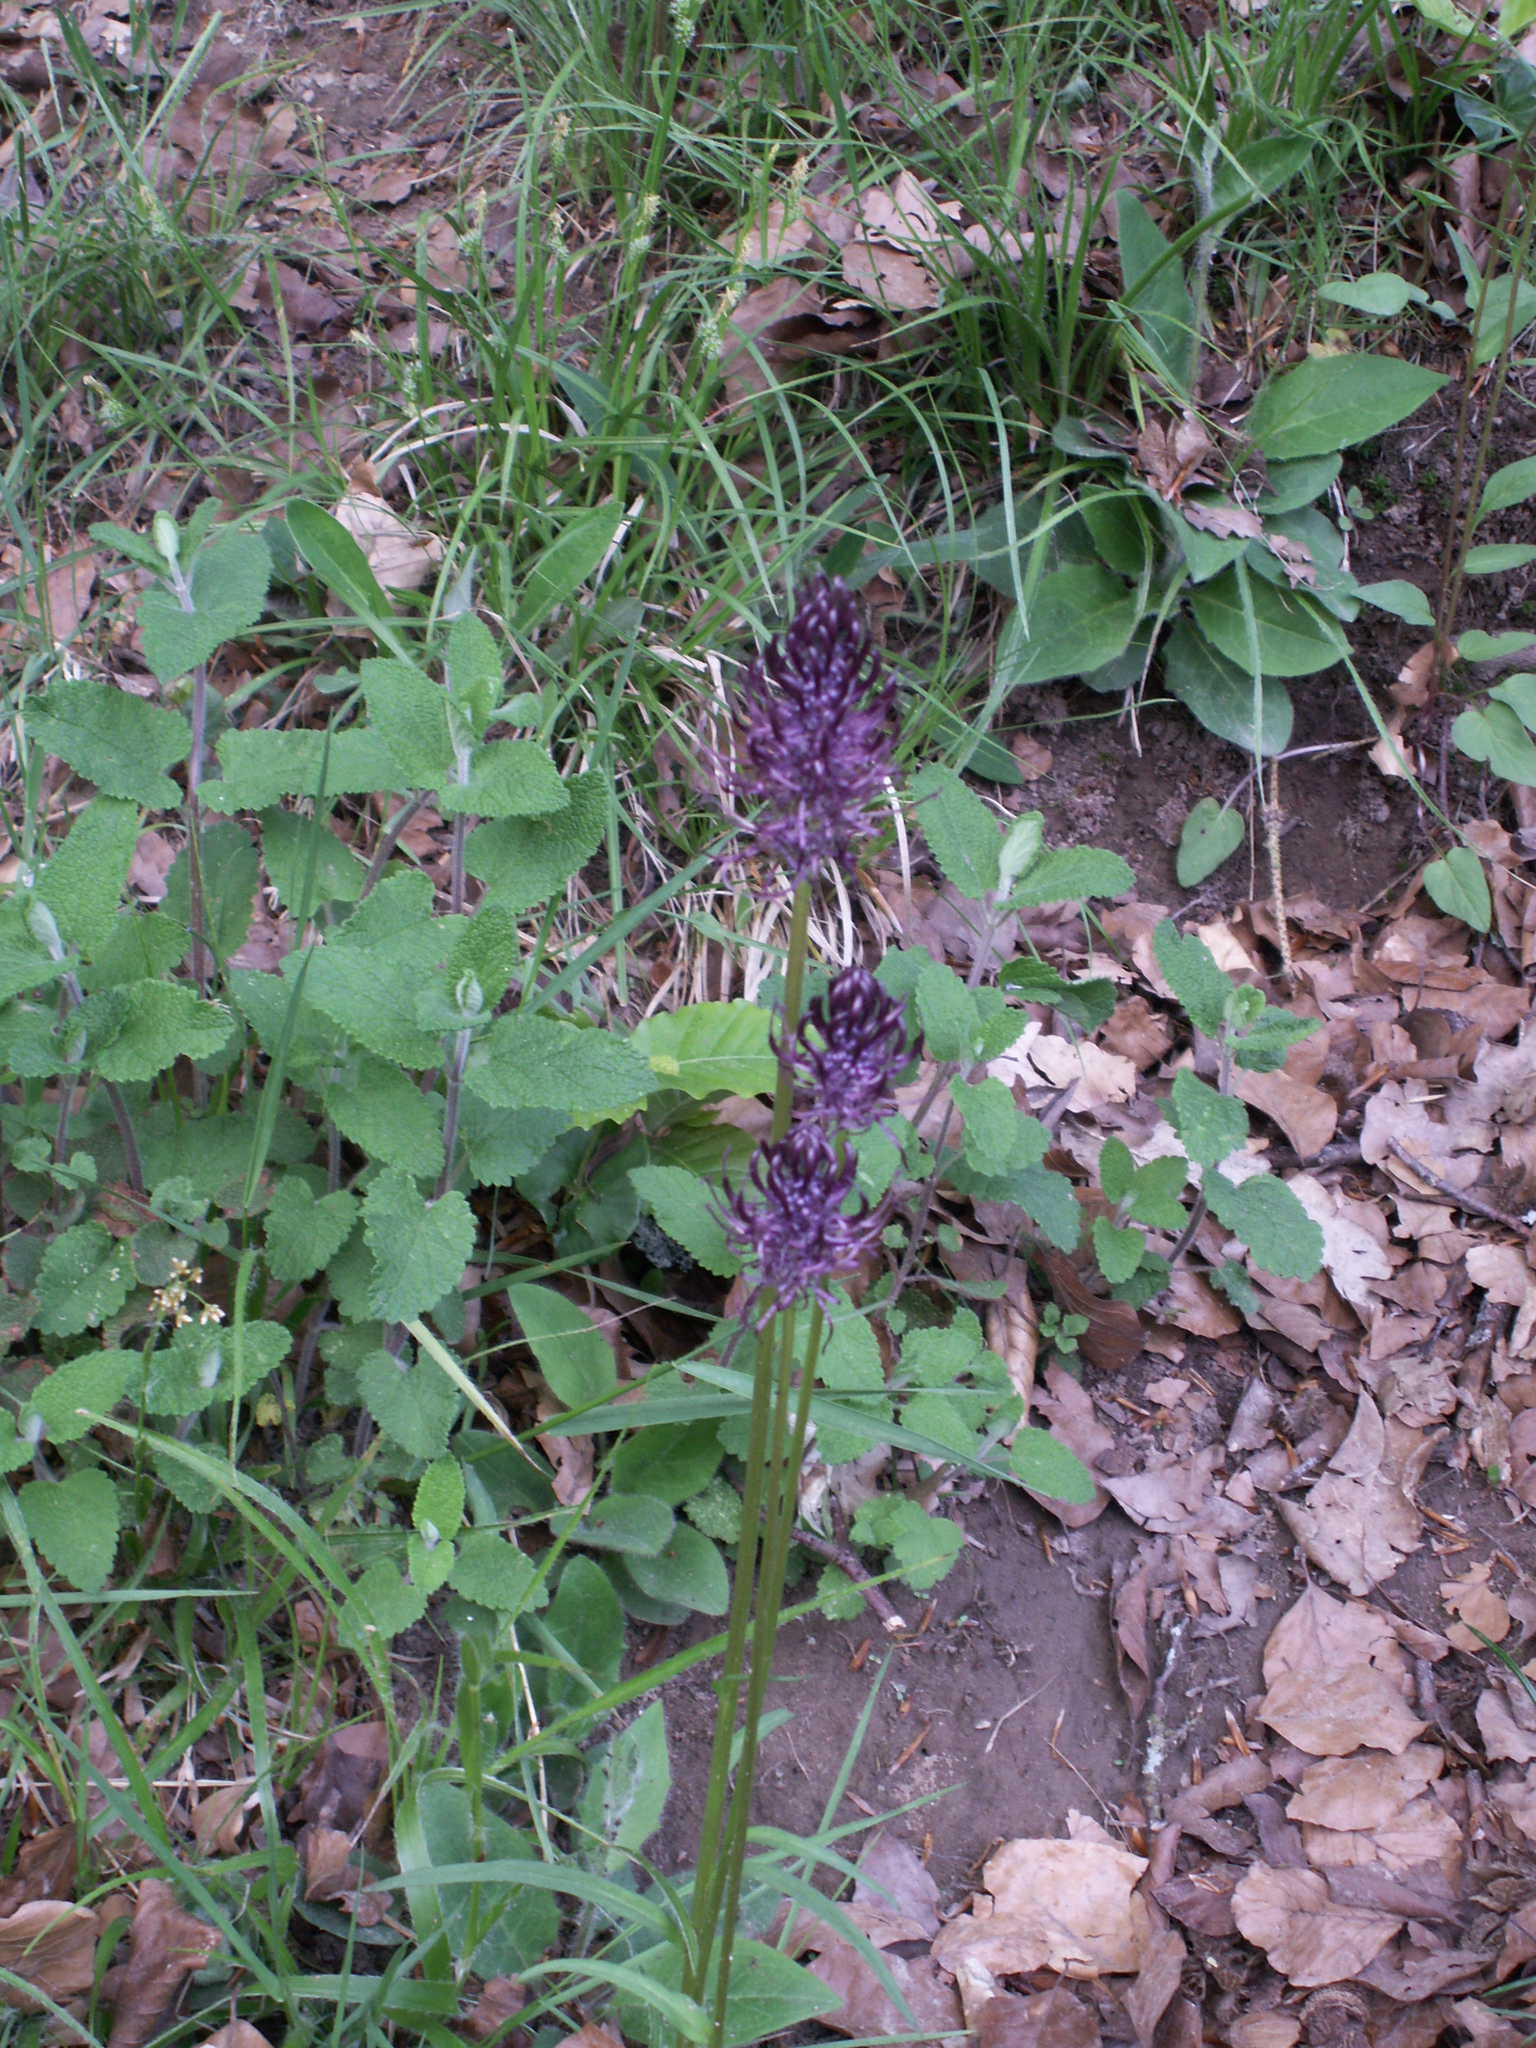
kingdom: Plantae
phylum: Tracheophyta
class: Magnoliopsida
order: Asterales
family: Campanulaceae
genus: Phyteuma
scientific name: Phyteuma nigrum
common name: Black rampion
